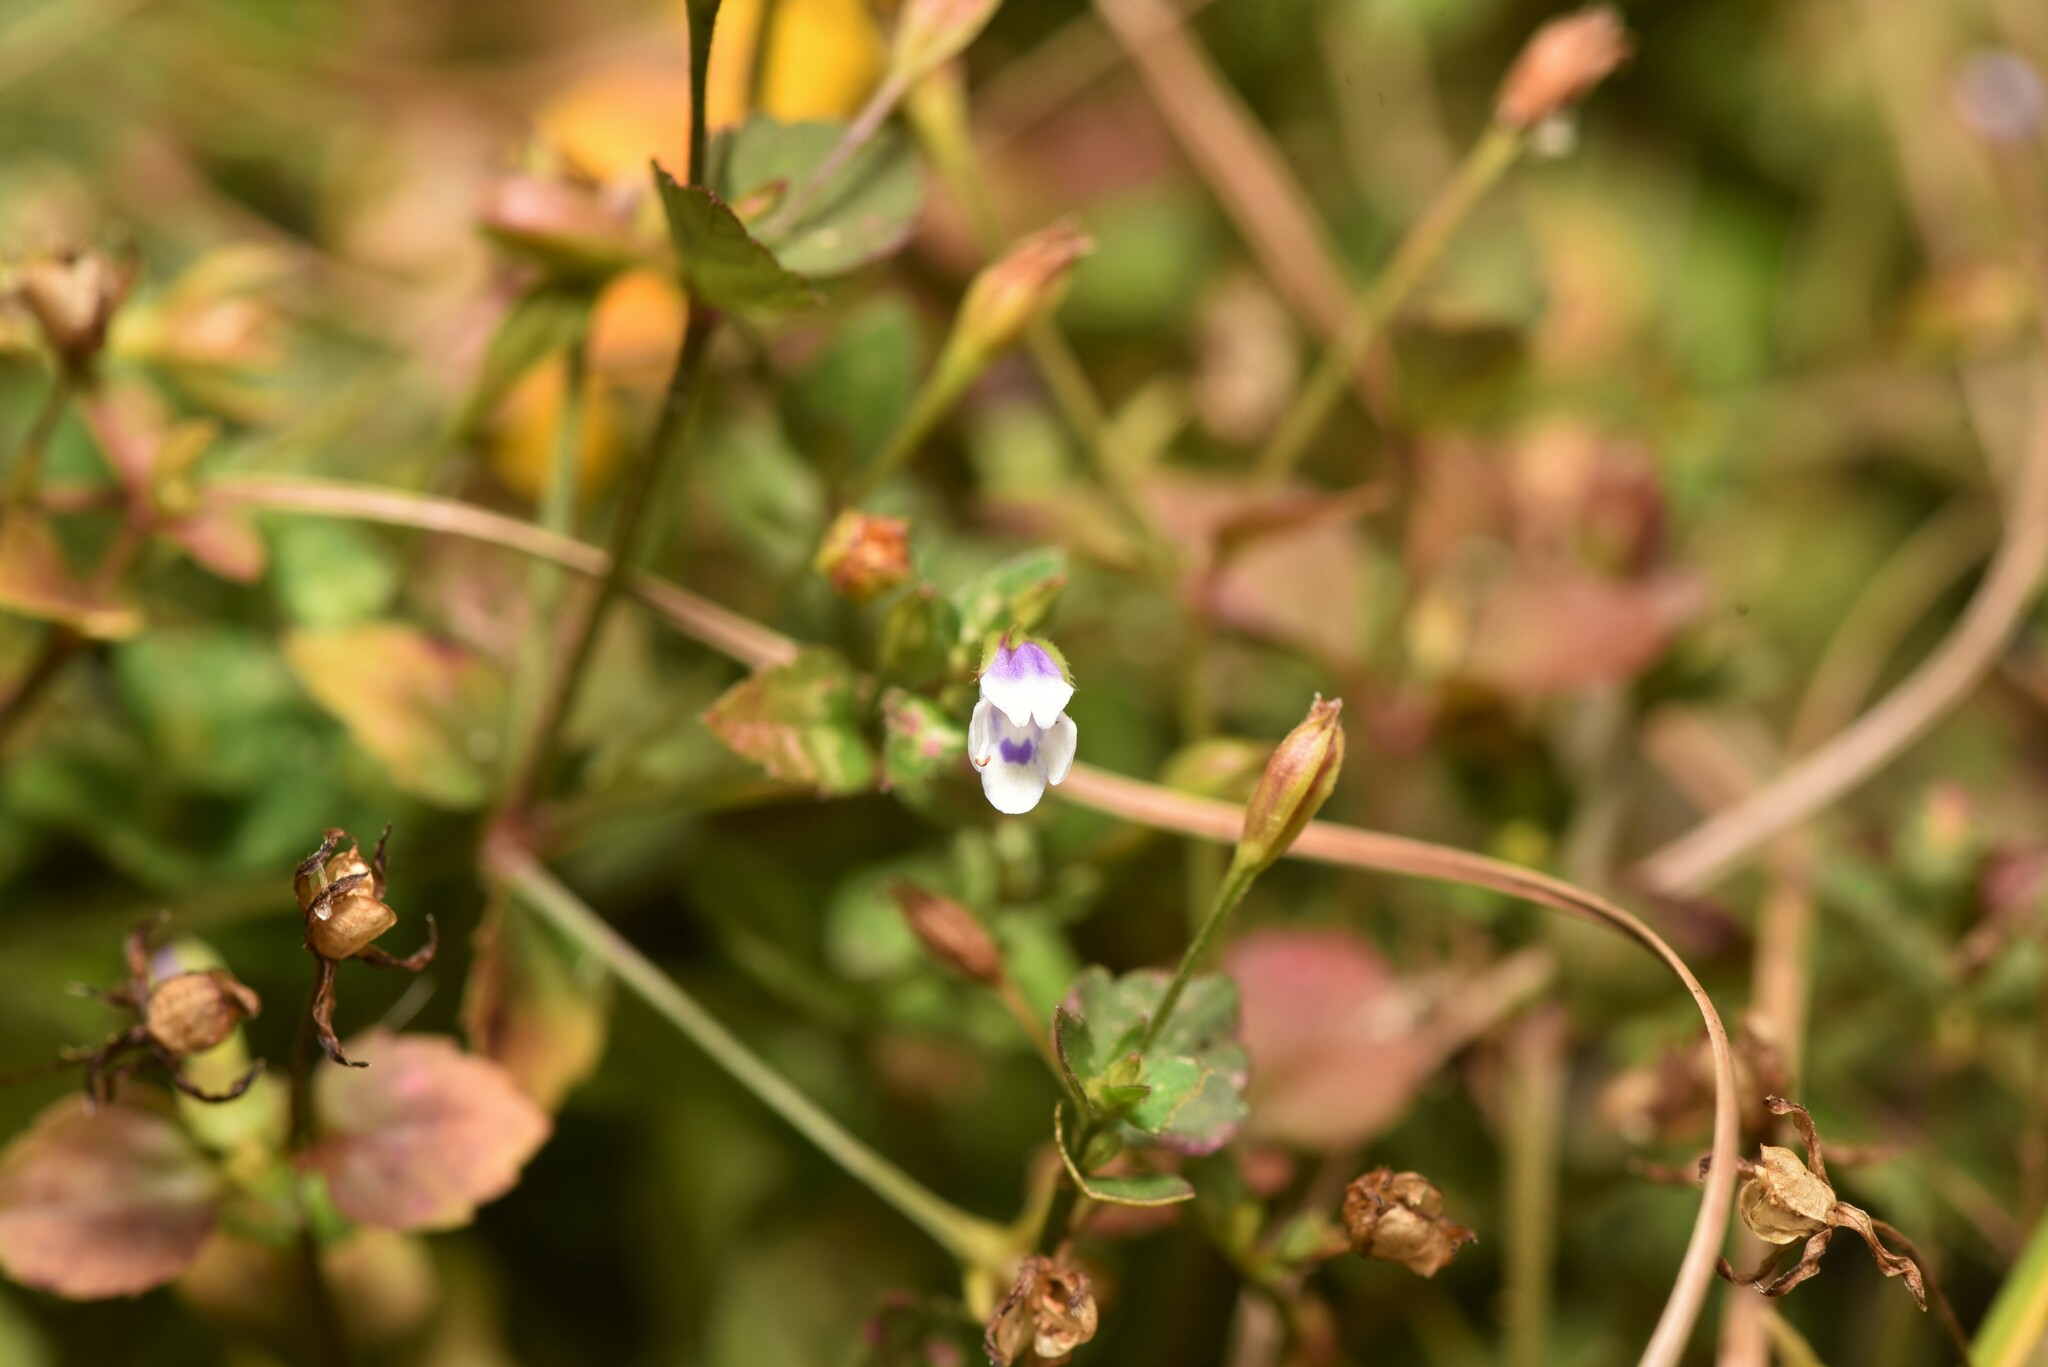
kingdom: Plantae
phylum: Tracheophyta
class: Magnoliopsida
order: Lamiales
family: Linderniaceae
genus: Torenia
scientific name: Torenia crustacea
